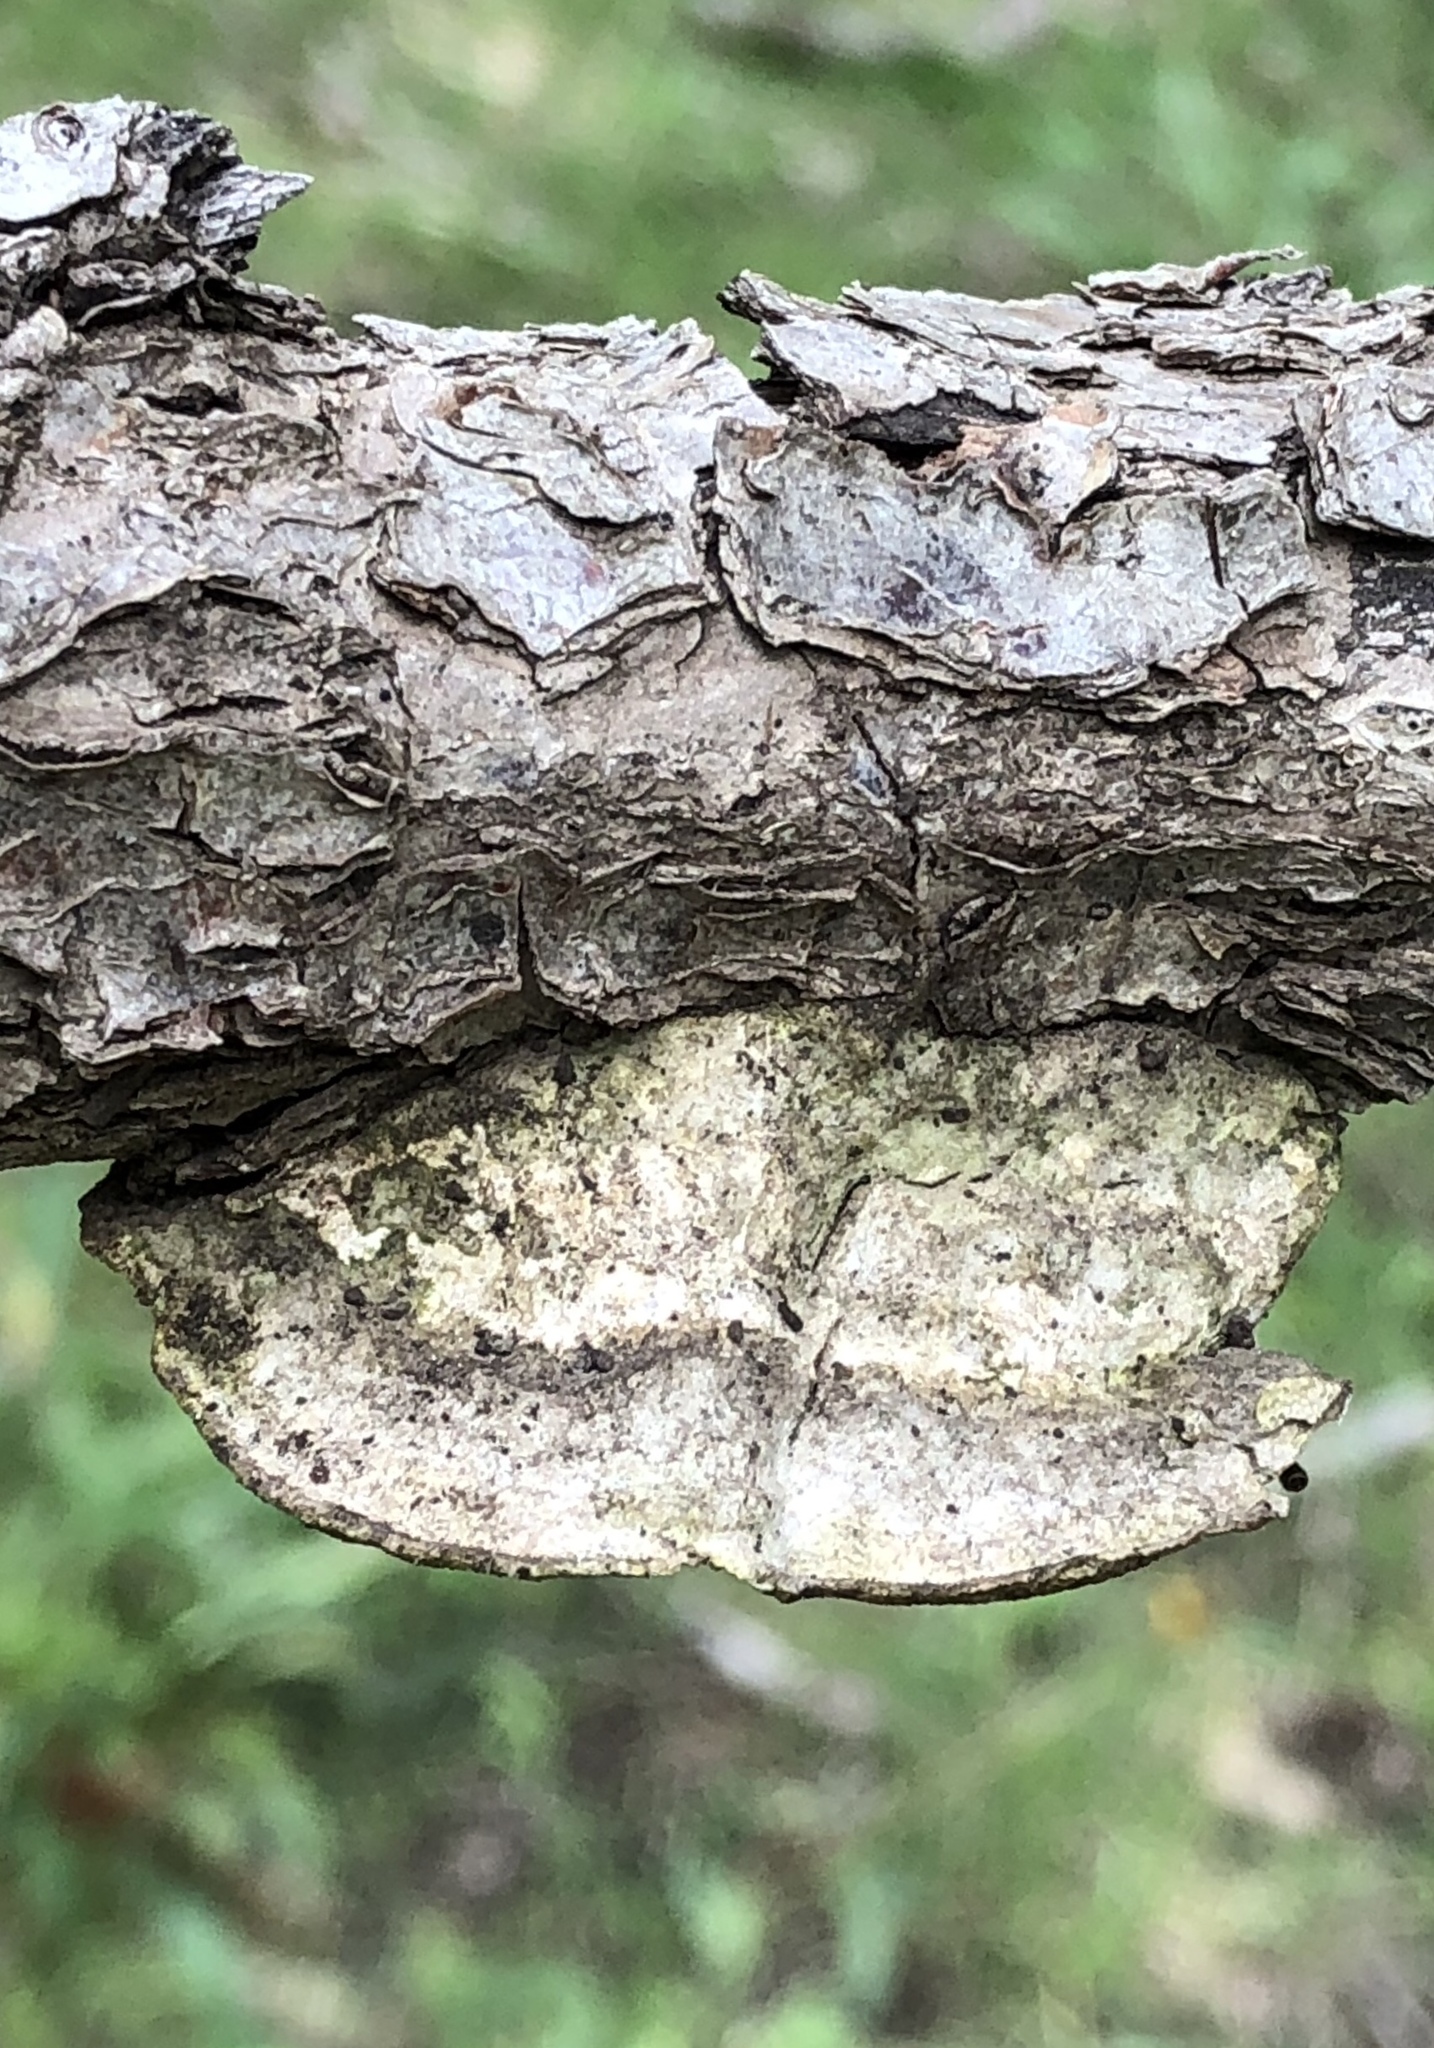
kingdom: Fungi
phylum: Basidiomycota
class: Agaricomycetes
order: Polyporales
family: Polyporaceae
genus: Trametes
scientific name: Trametes gibbosa
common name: Lumpy bracket
